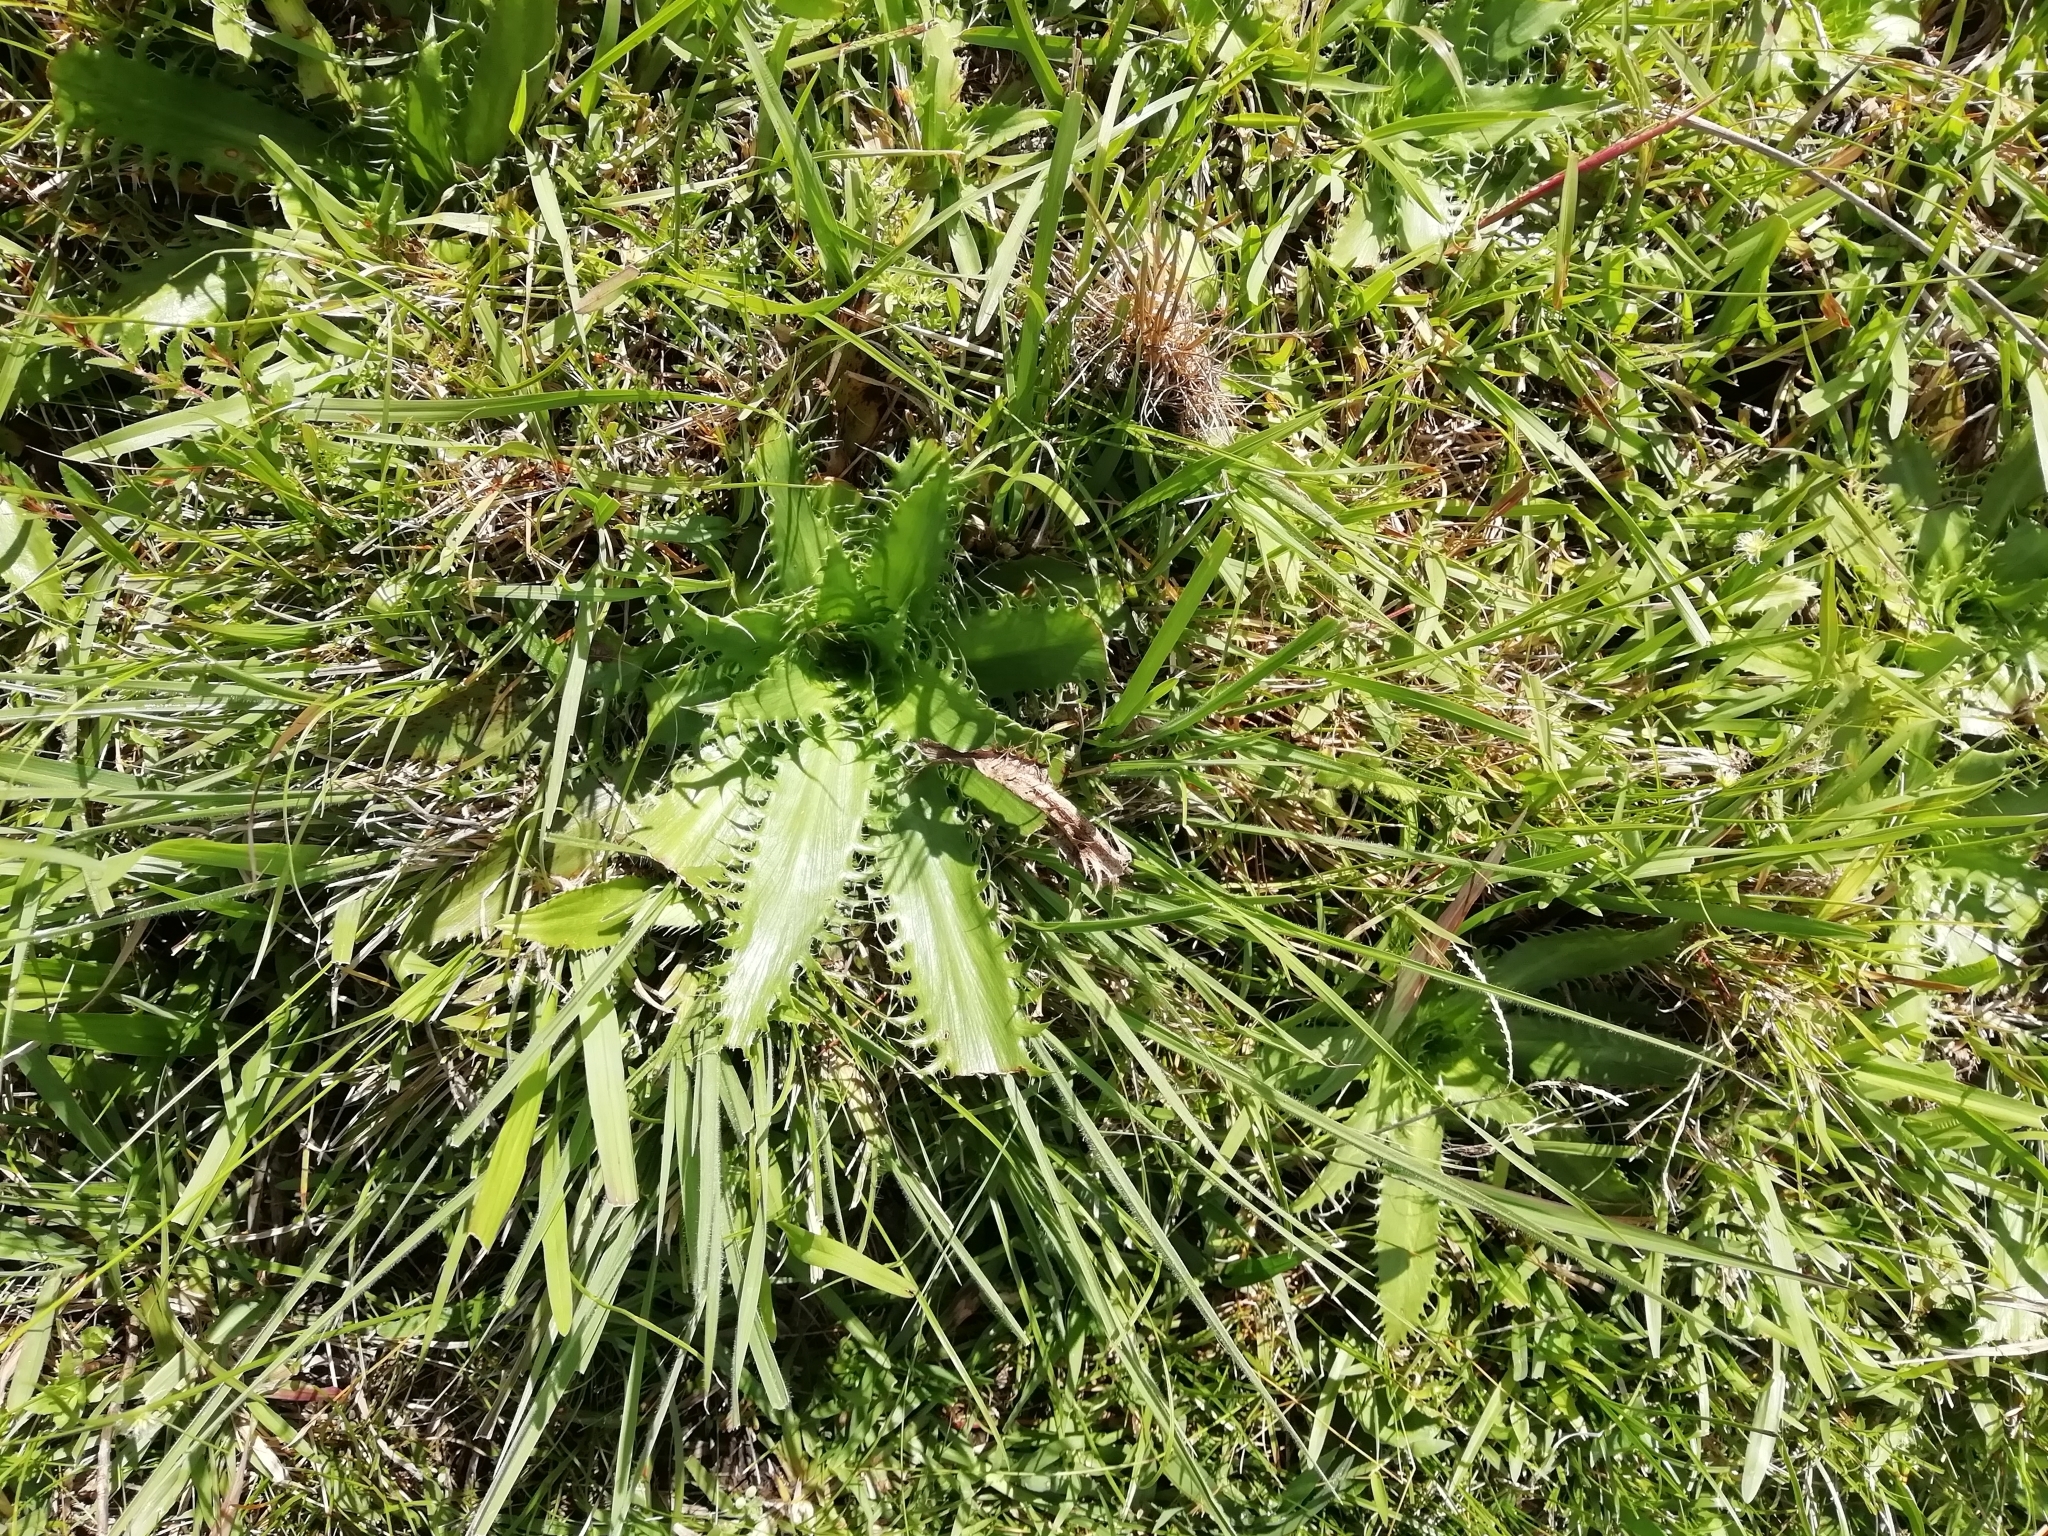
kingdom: Plantae
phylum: Tracheophyta
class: Magnoliopsida
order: Apiales
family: Apiaceae
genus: Eryngium
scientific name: Eryngium serra
